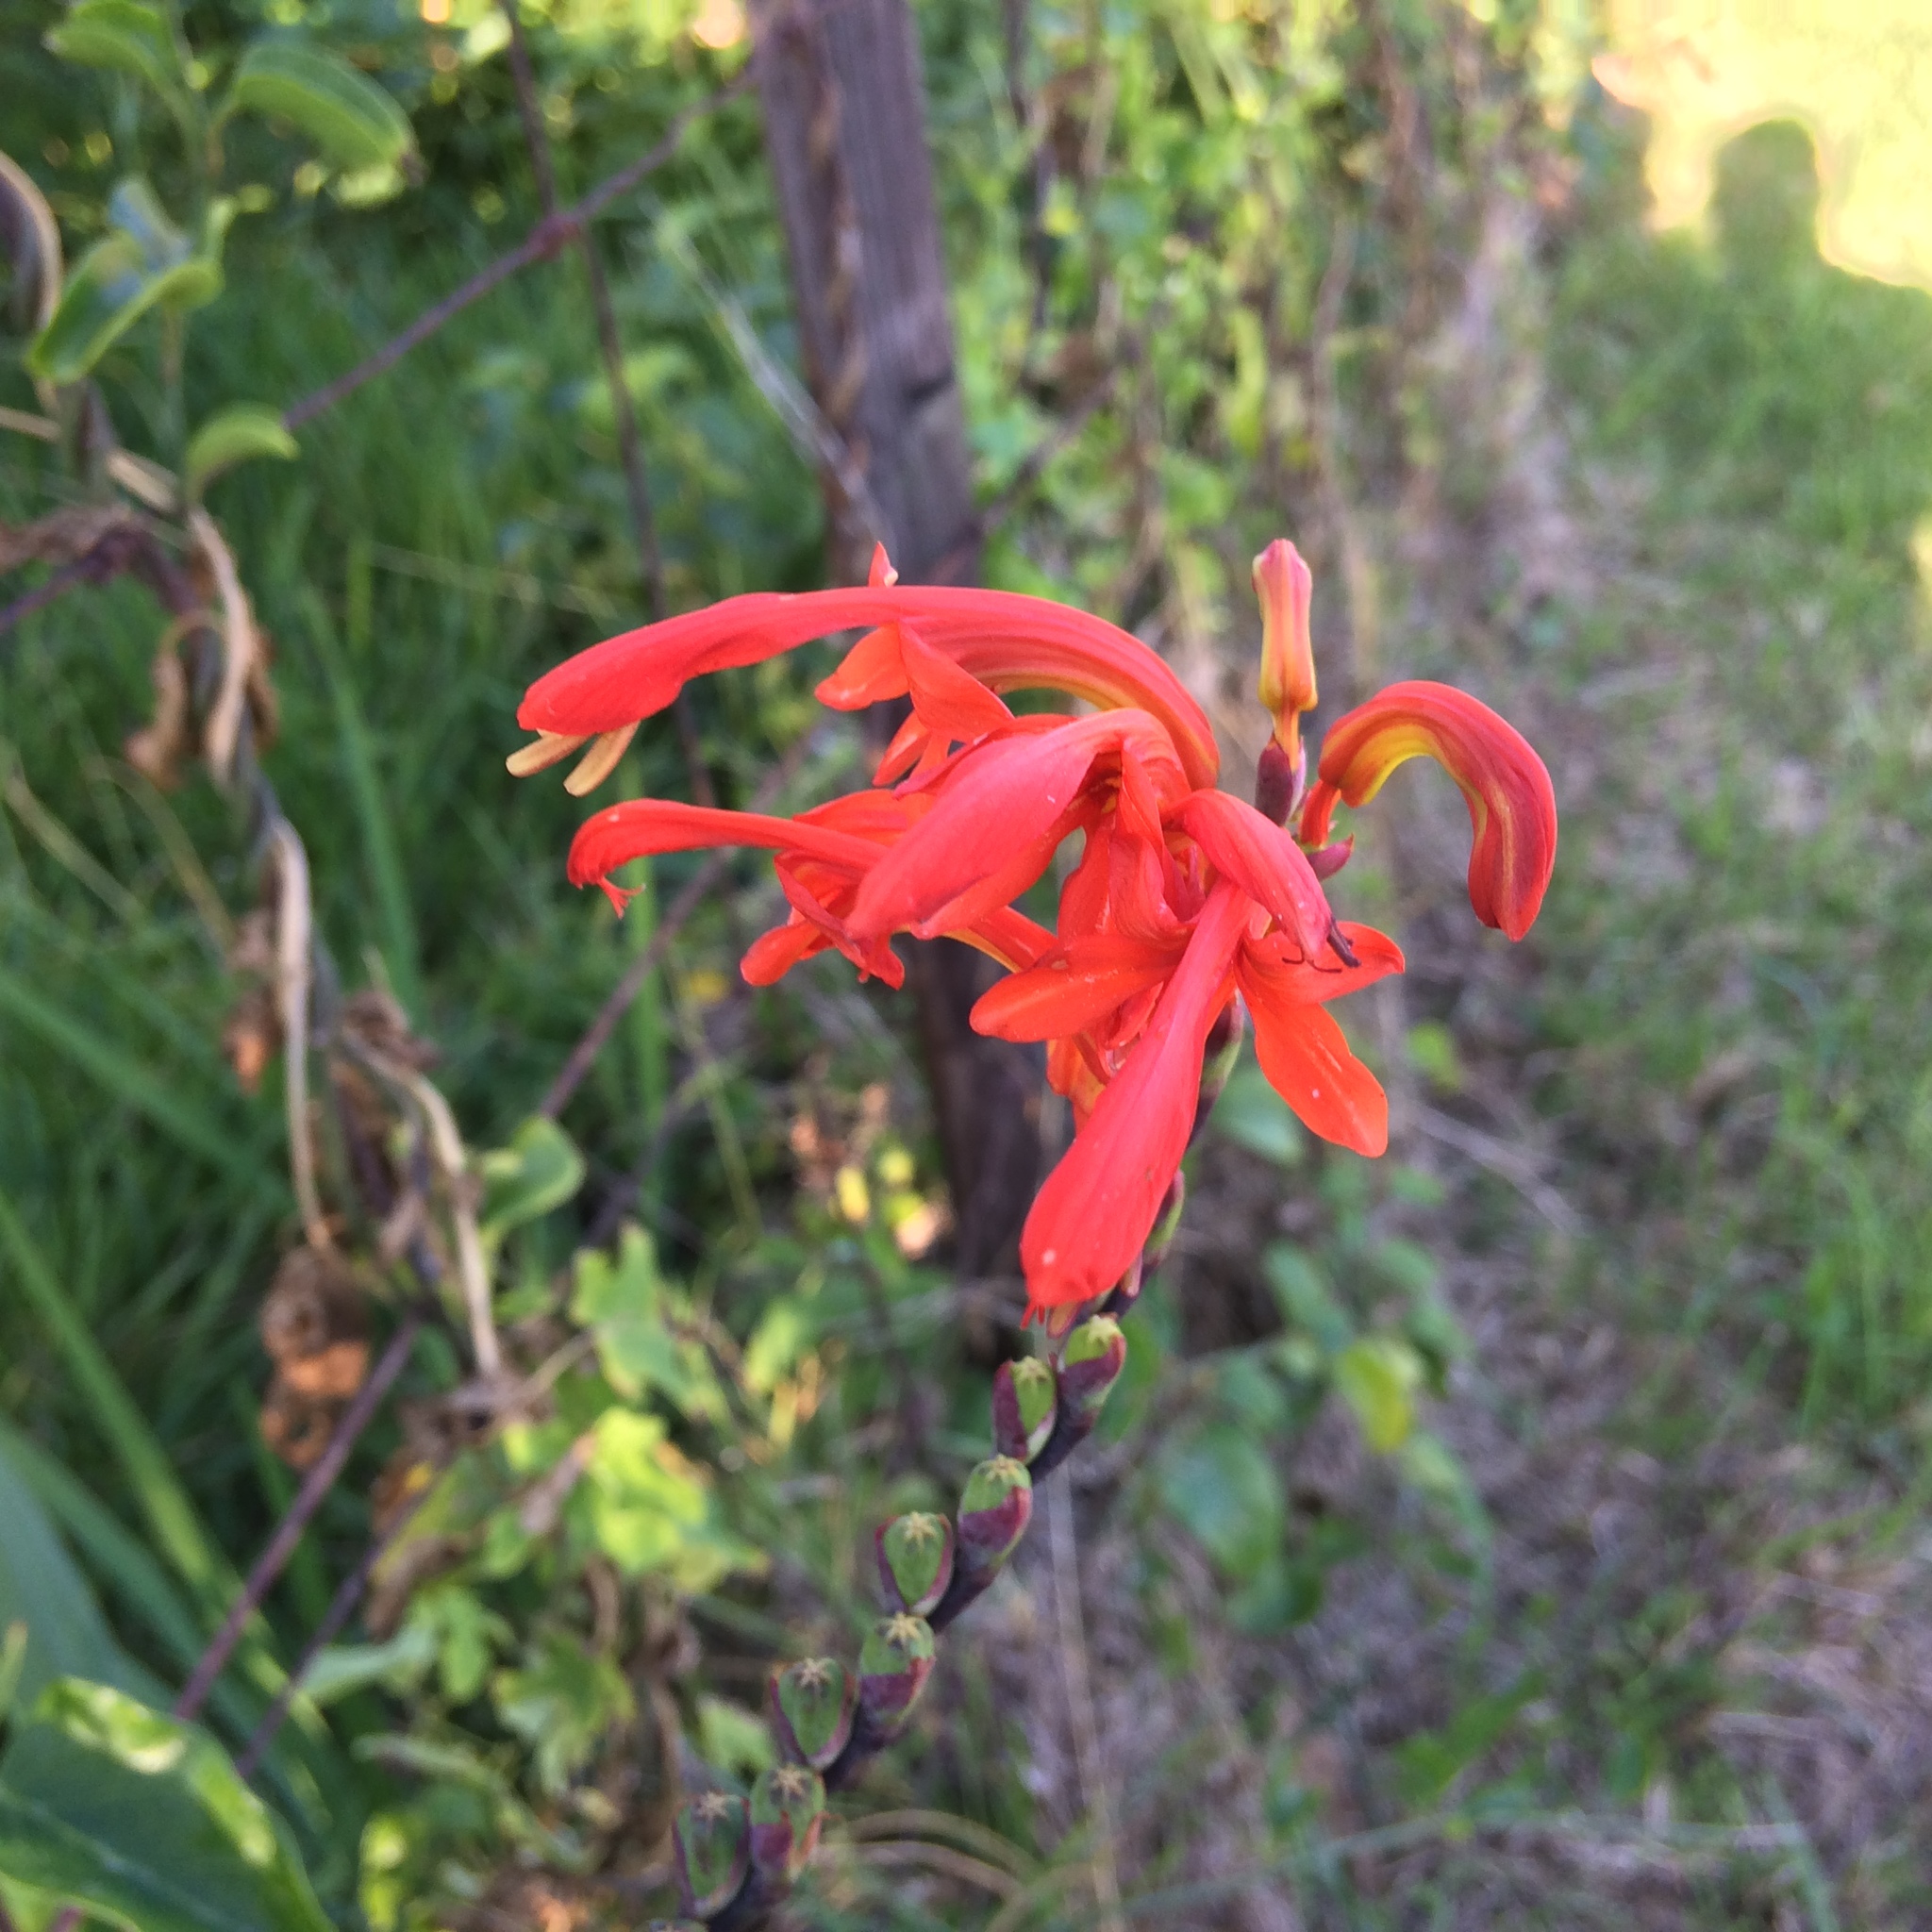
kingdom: Plantae
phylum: Tracheophyta
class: Liliopsida
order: Asparagales
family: Iridaceae
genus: Chasmanthe
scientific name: Chasmanthe aethiopica
